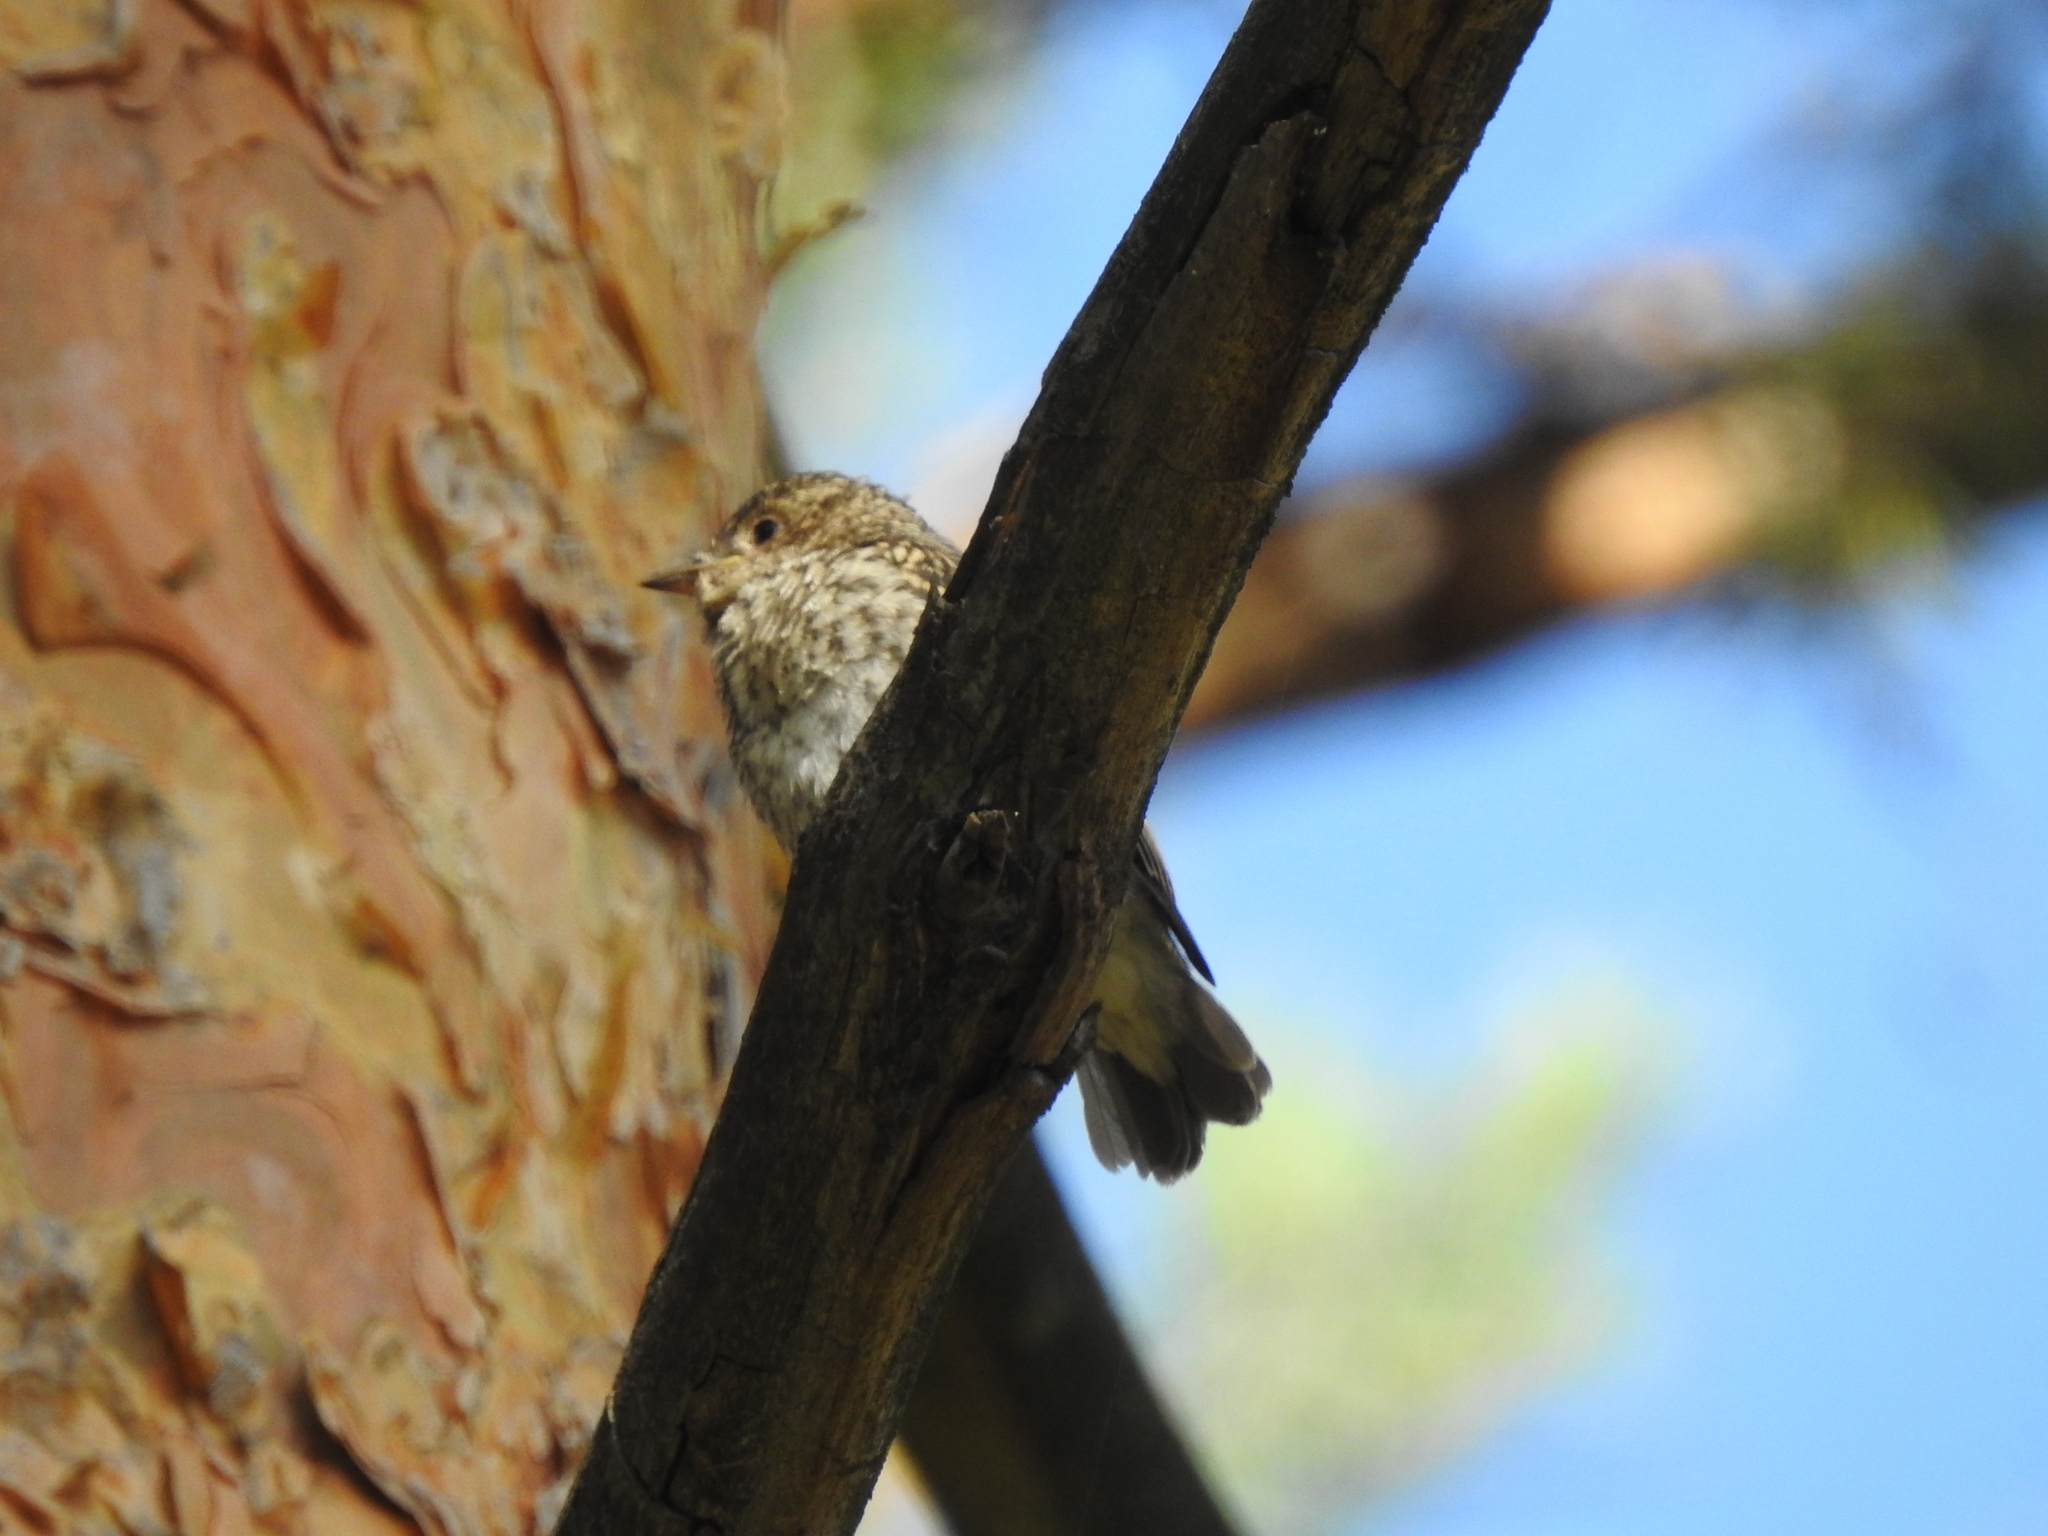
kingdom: Animalia
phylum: Chordata
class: Aves
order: Passeriformes
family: Muscicapidae
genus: Muscicapa
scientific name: Muscicapa striata
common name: Spotted flycatcher
